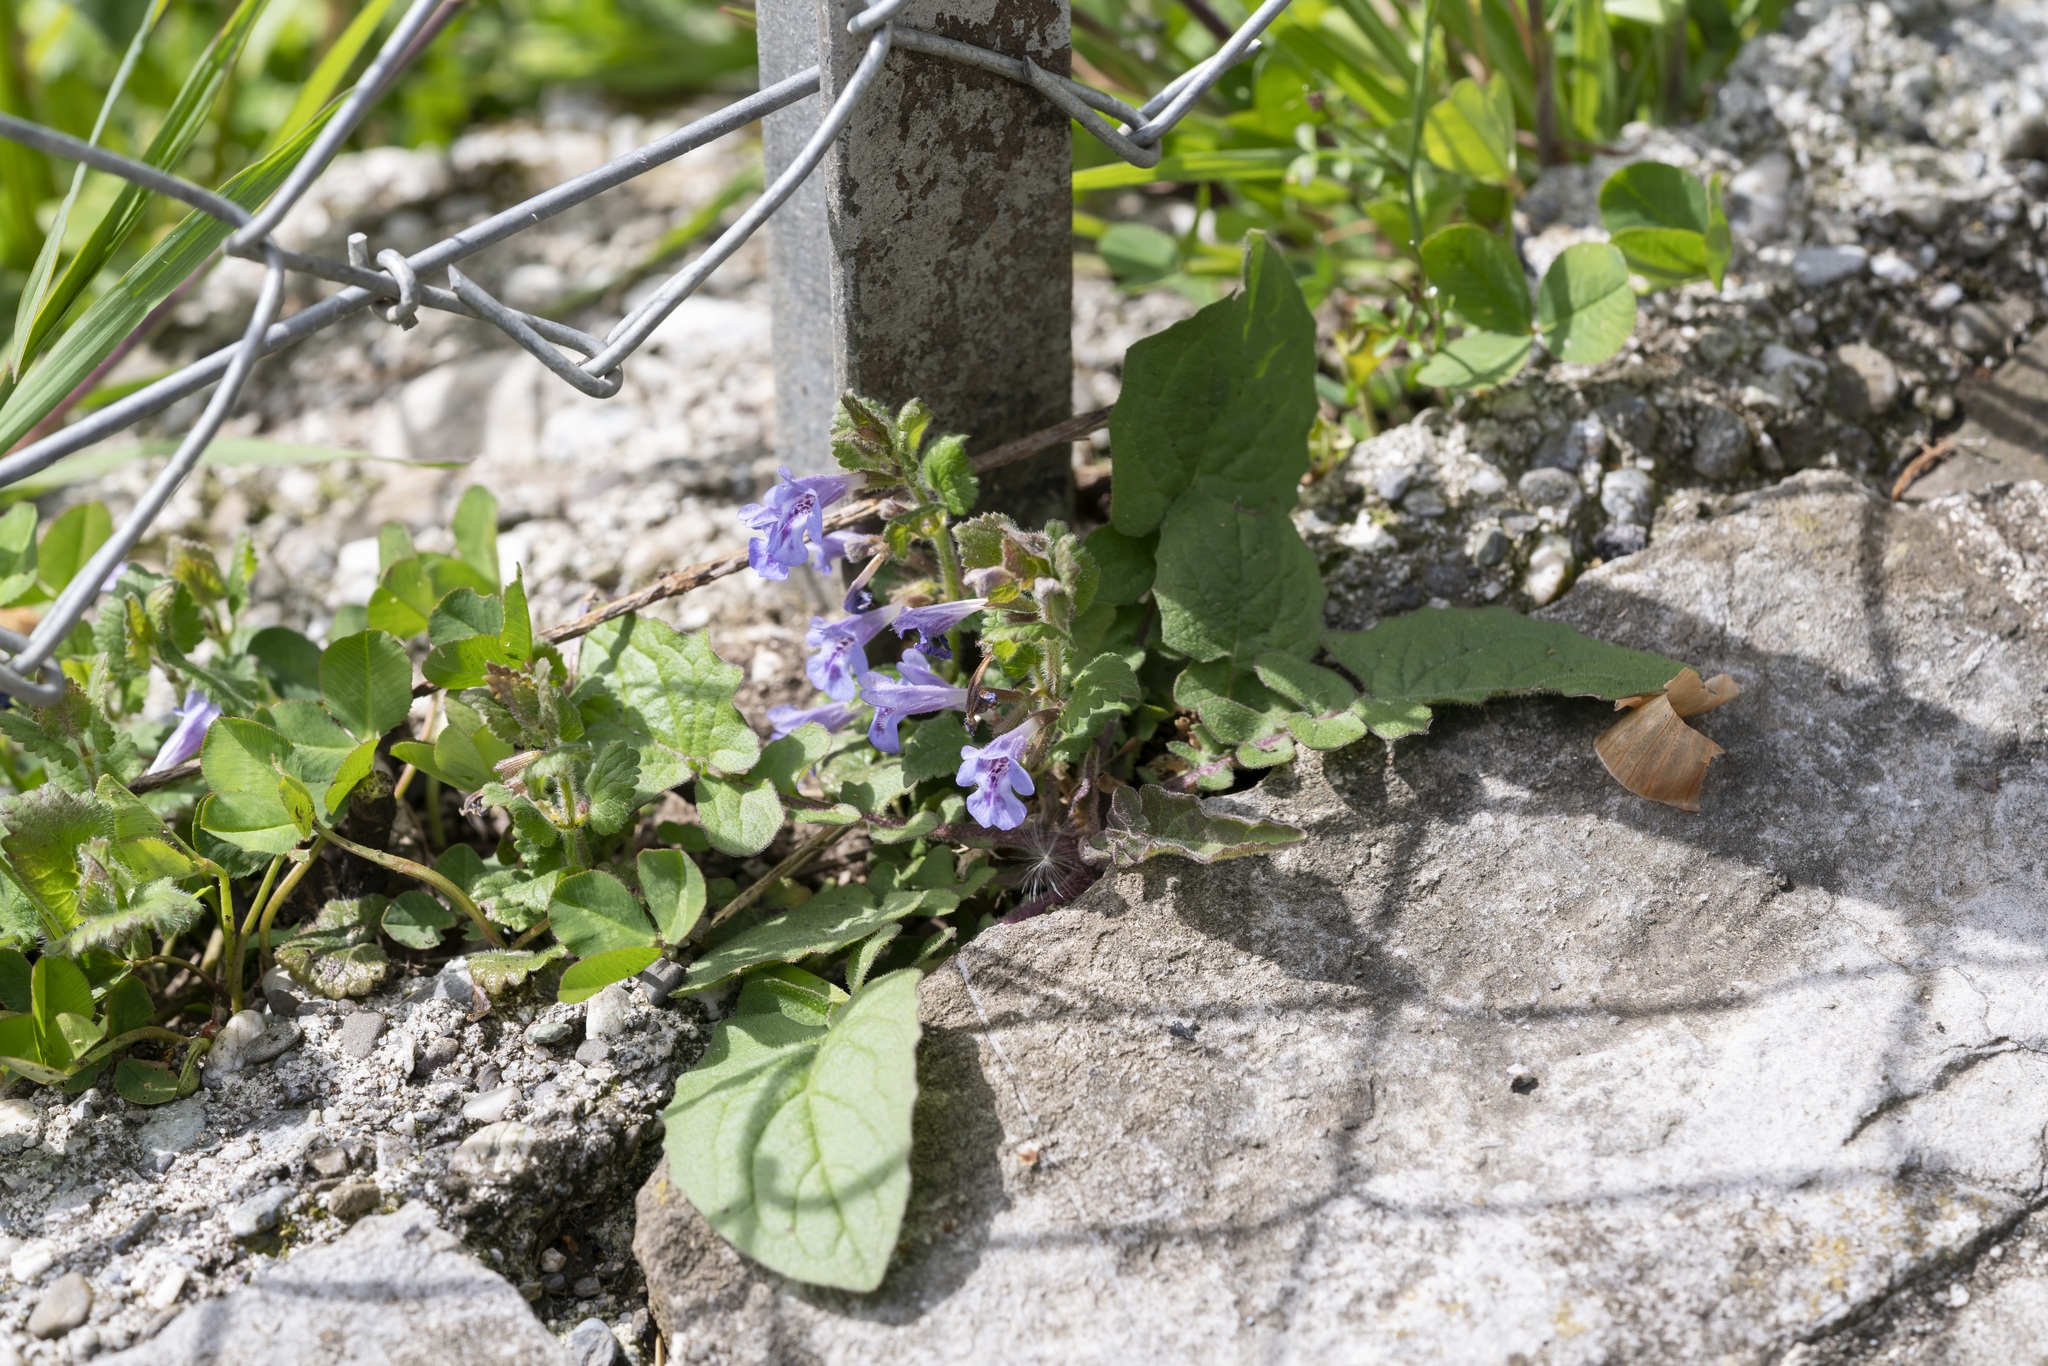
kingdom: Plantae
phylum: Tracheophyta
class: Magnoliopsida
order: Lamiales
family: Lamiaceae
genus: Glechoma
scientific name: Glechoma hederacea
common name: Ground ivy
